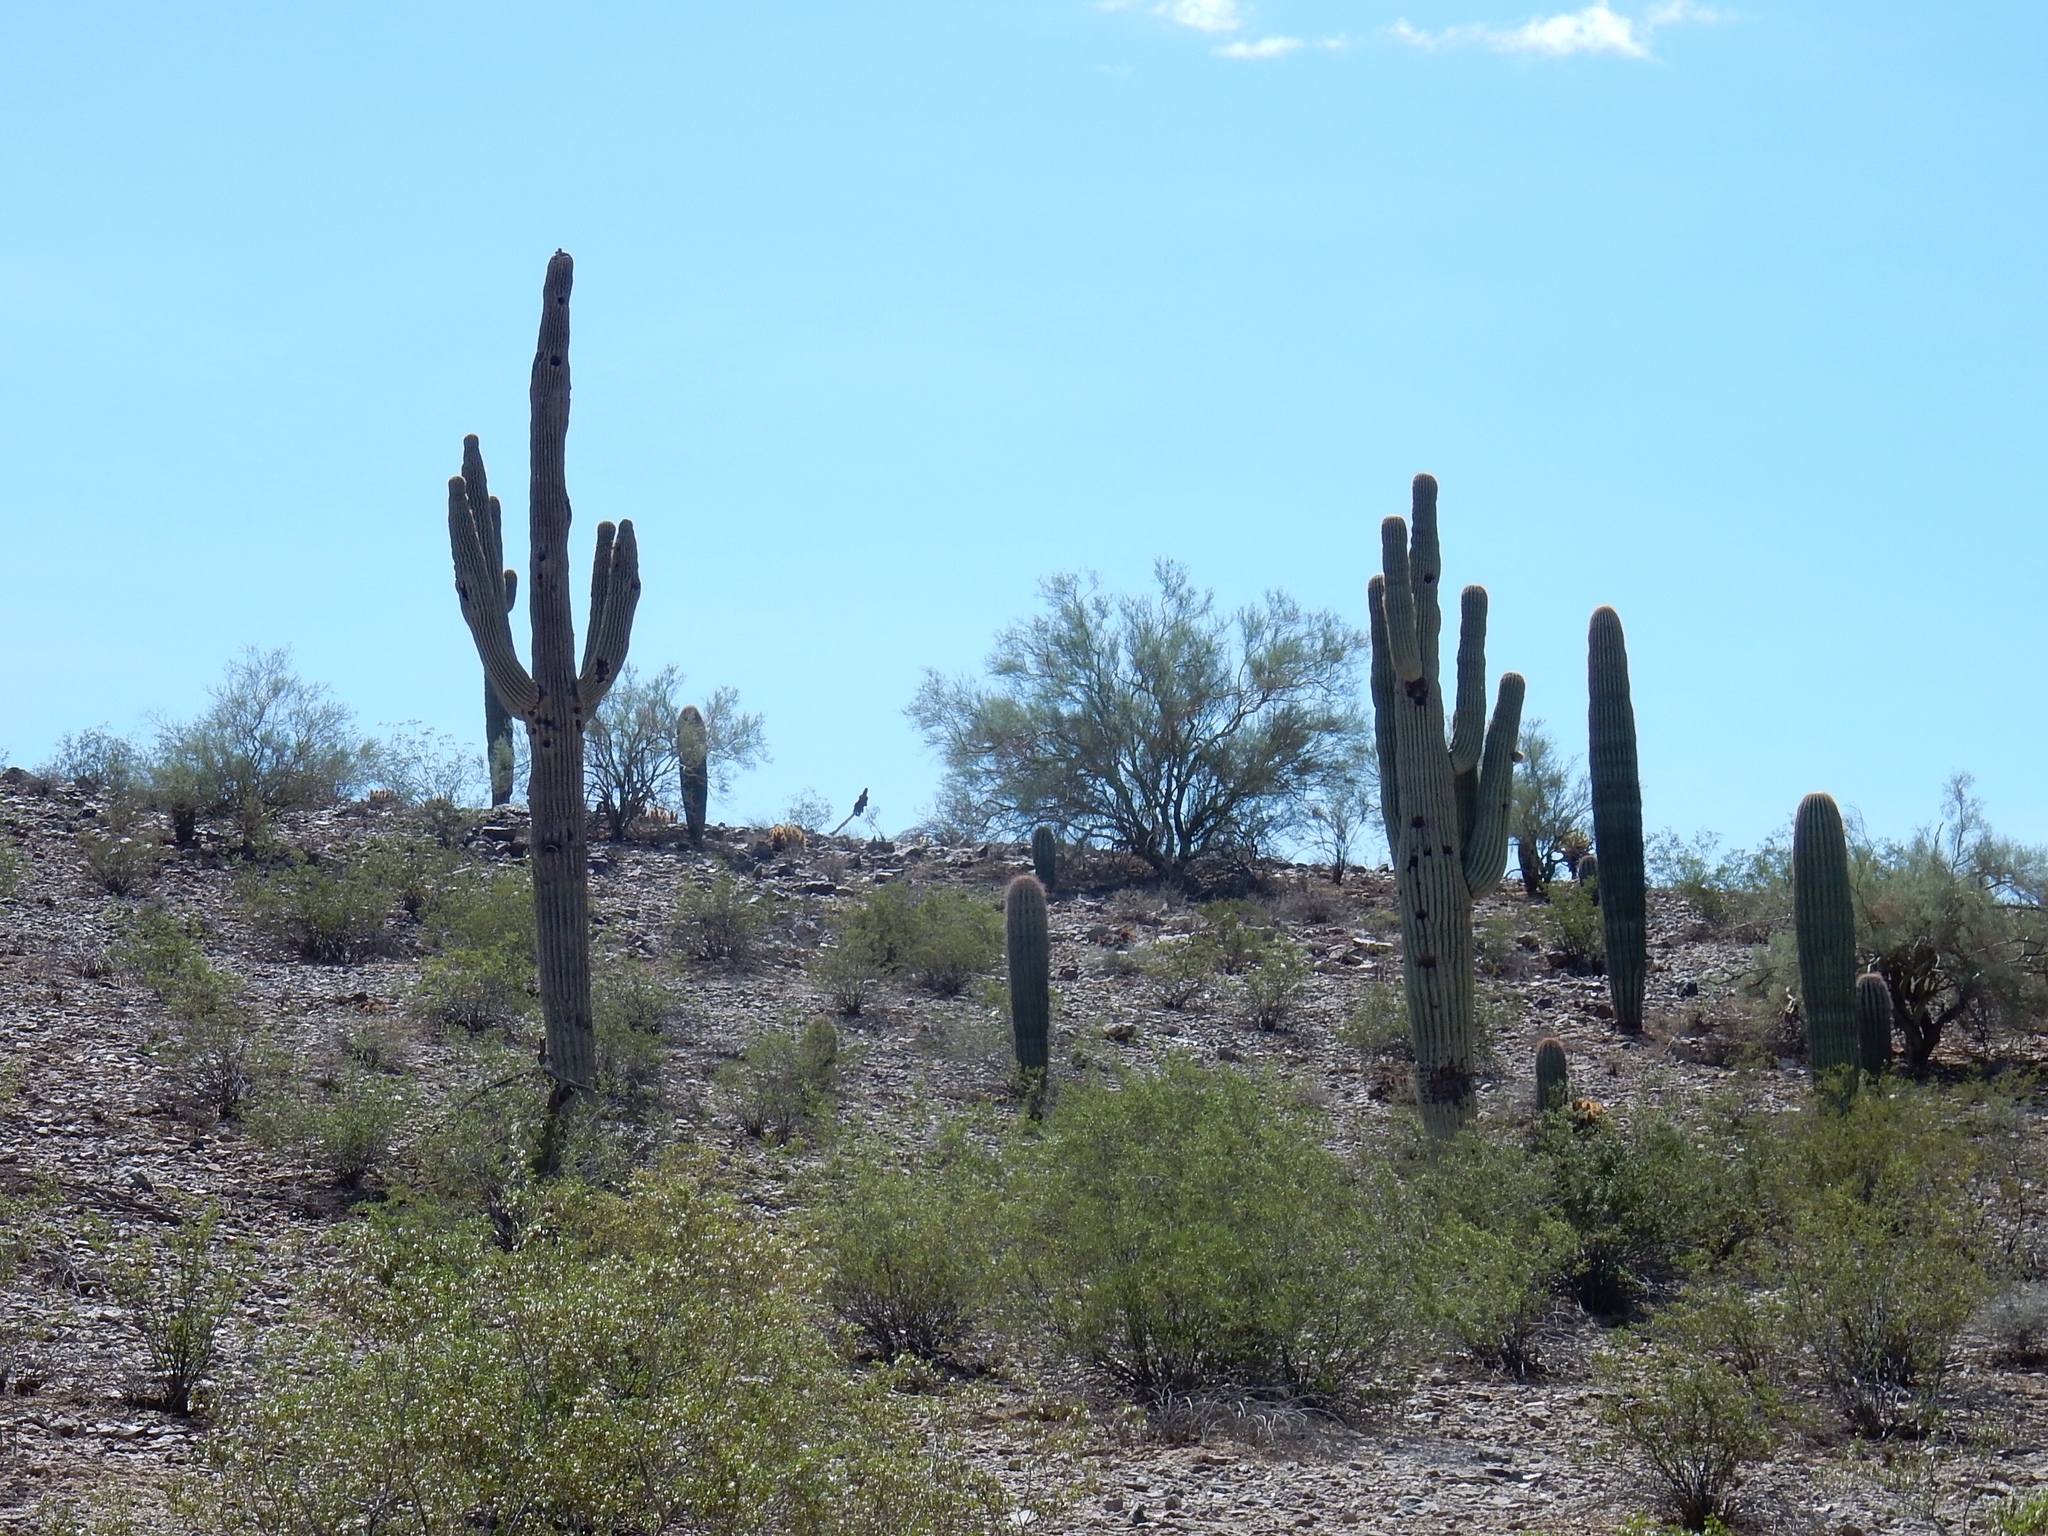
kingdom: Plantae
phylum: Tracheophyta
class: Magnoliopsida
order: Caryophyllales
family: Cactaceae
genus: Carnegiea
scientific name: Carnegiea gigantea
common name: Saguaro
